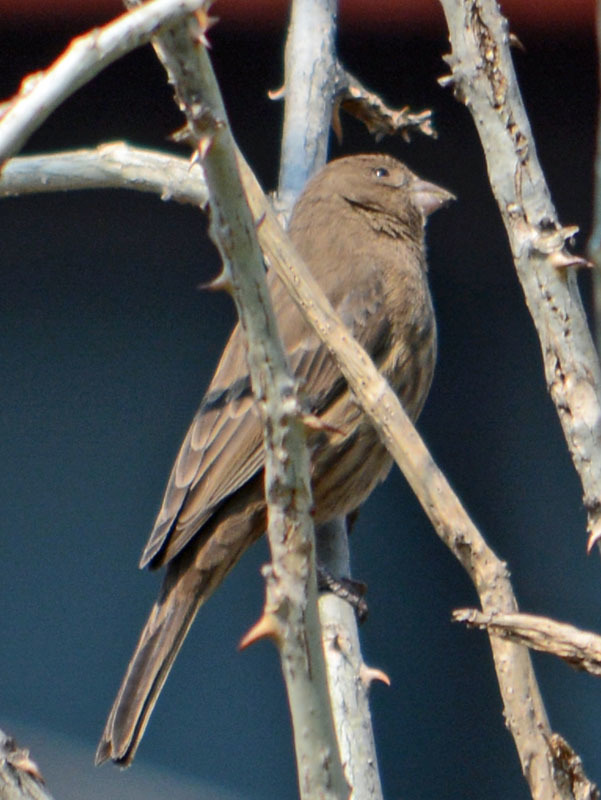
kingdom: Animalia
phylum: Chordata
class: Aves
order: Passeriformes
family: Fringillidae
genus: Haemorhous
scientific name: Haemorhous mexicanus
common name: House finch
